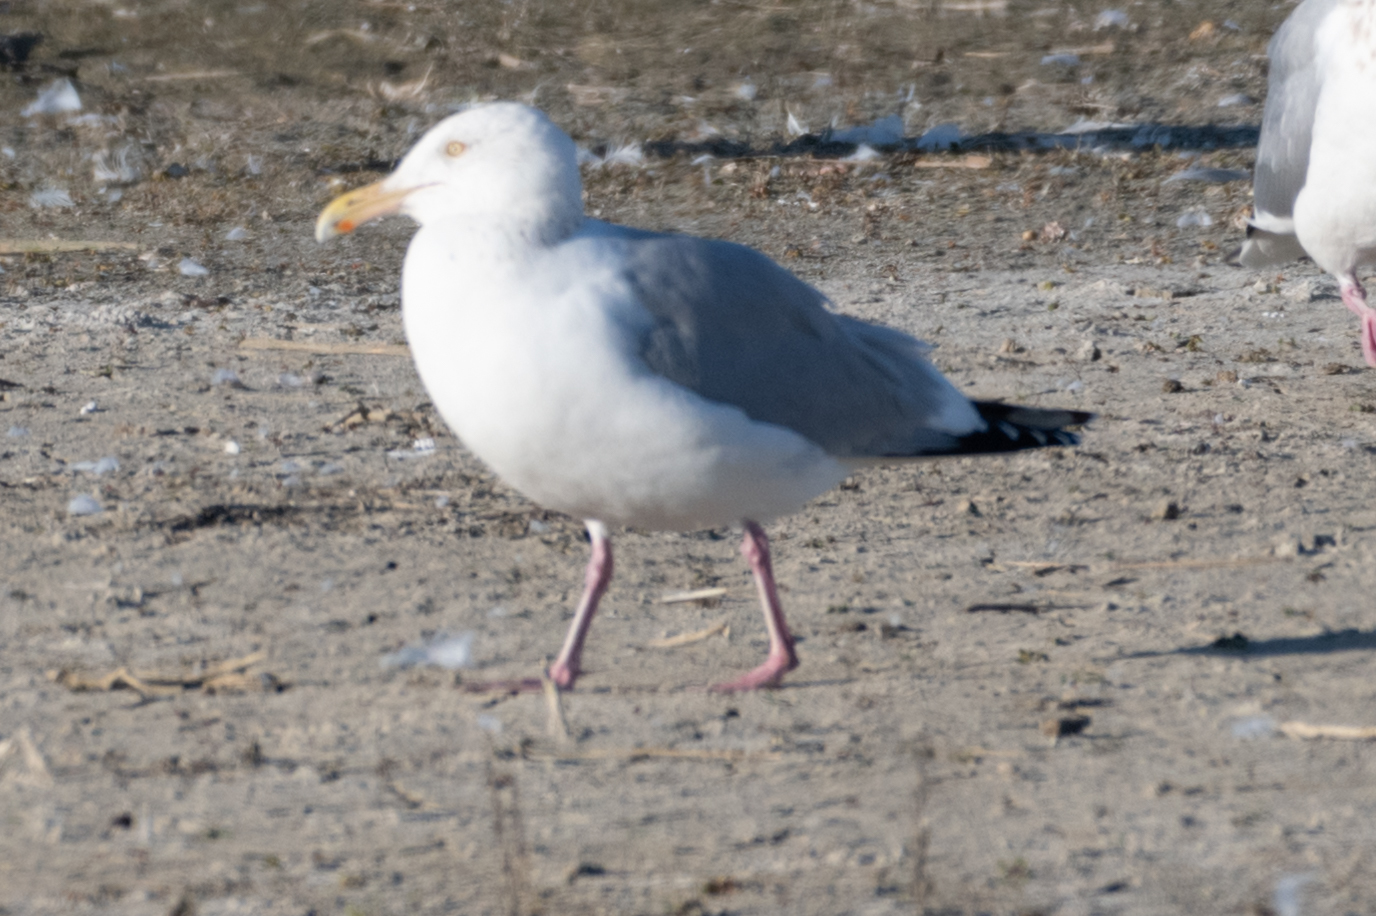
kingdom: Animalia
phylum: Chordata
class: Aves
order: Charadriiformes
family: Laridae
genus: Larus
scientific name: Larus argentatus
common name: Herring gull
